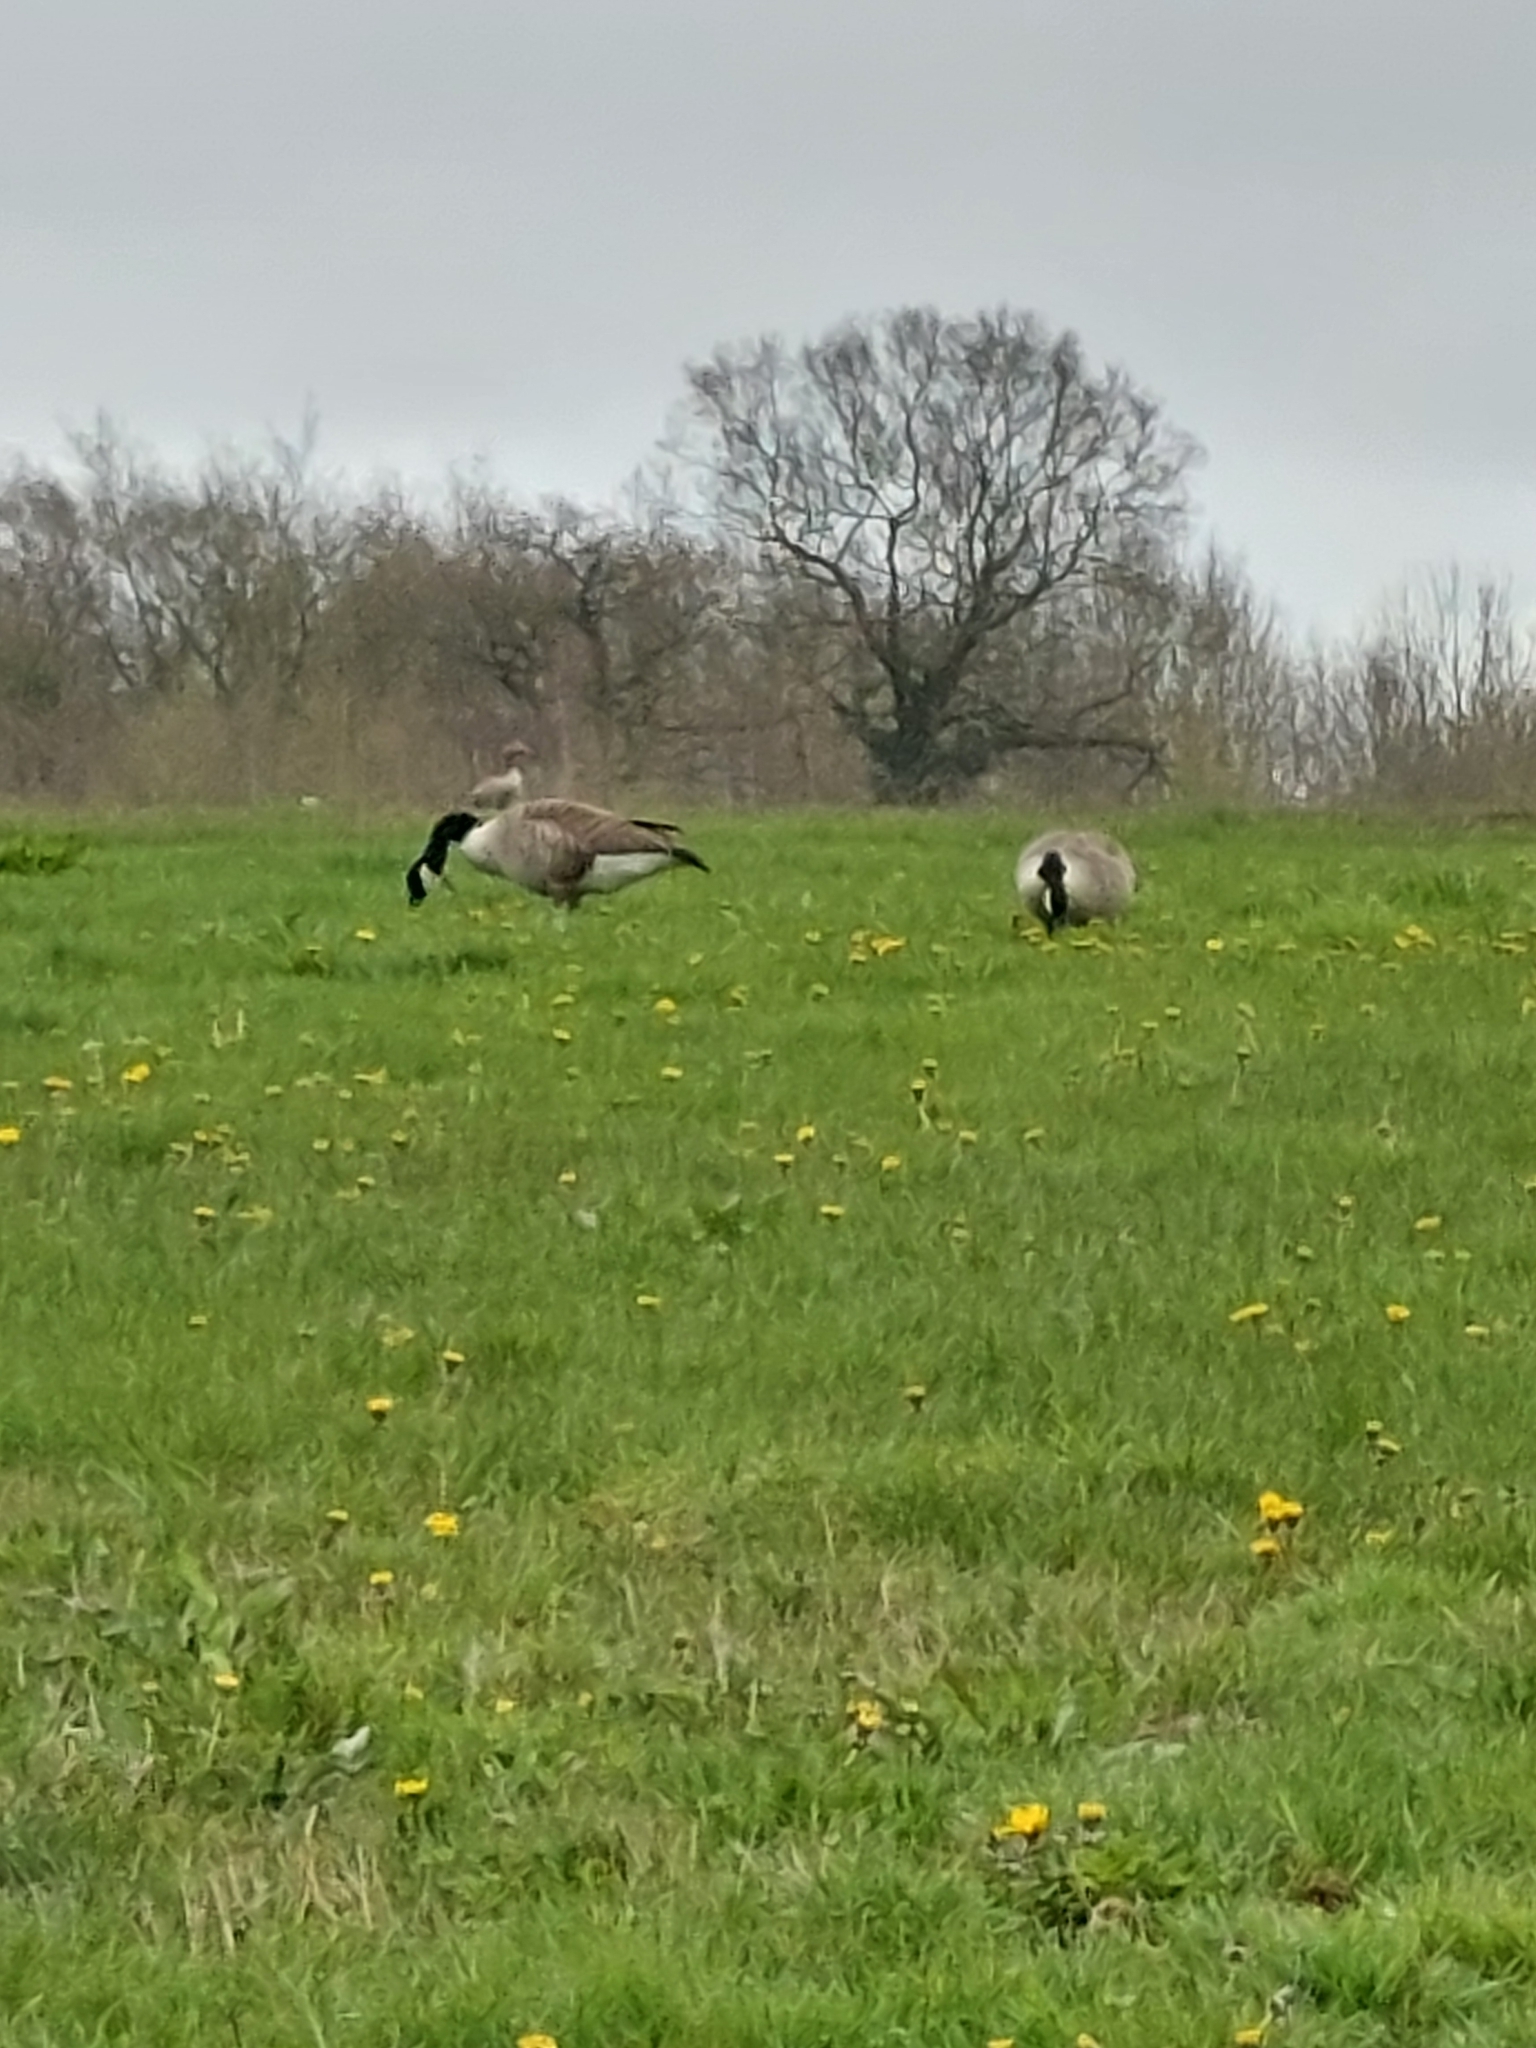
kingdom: Animalia
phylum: Chordata
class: Aves
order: Anseriformes
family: Anatidae
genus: Branta
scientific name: Branta canadensis
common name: Canada goose
